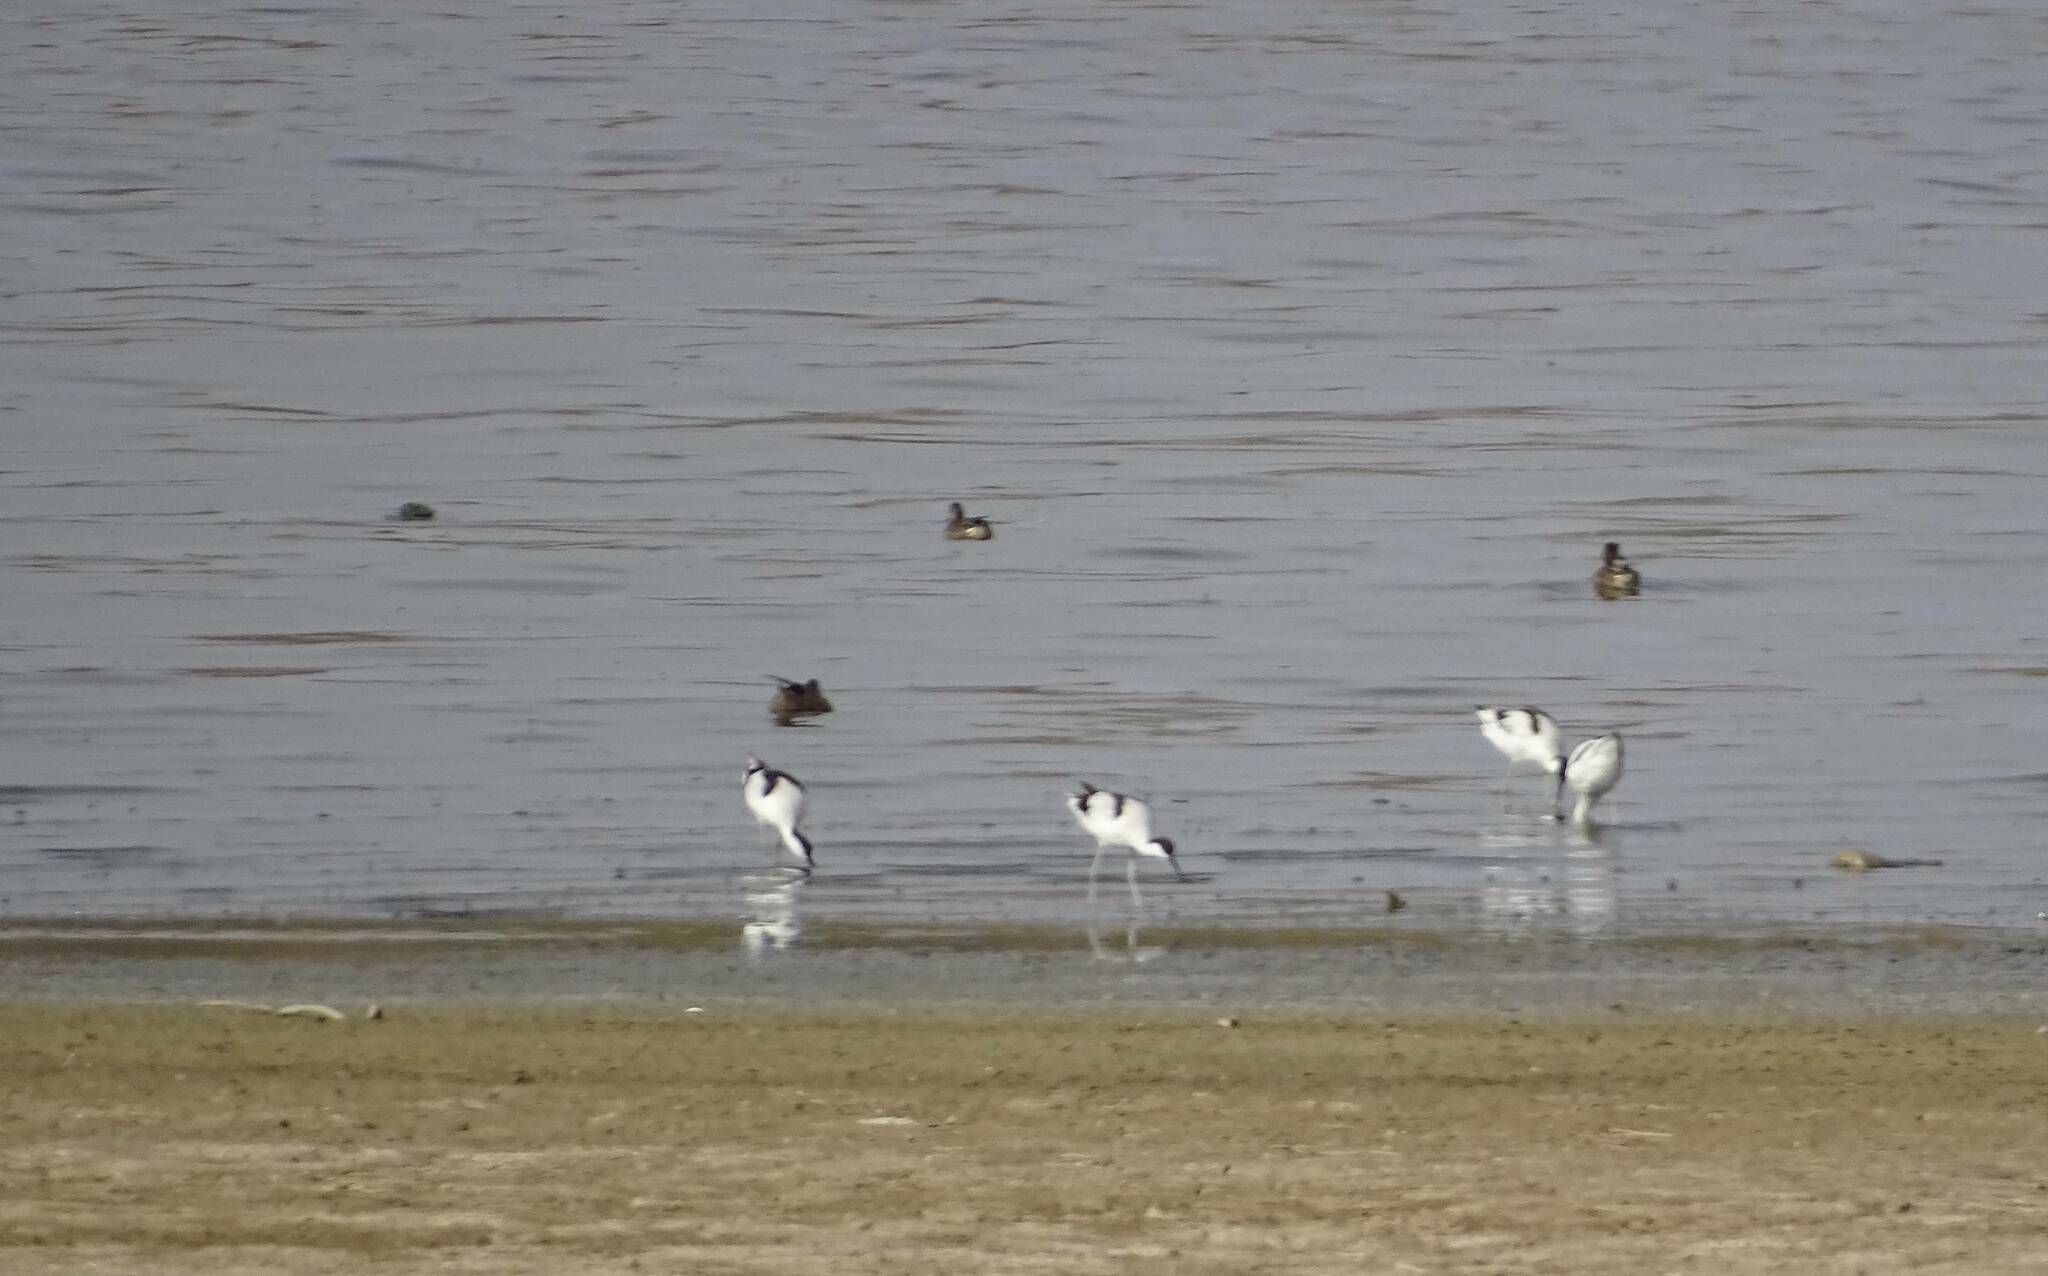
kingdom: Animalia
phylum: Chordata
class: Aves
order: Charadriiformes
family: Recurvirostridae
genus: Recurvirostra
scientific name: Recurvirostra avosetta
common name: Pied avocet
